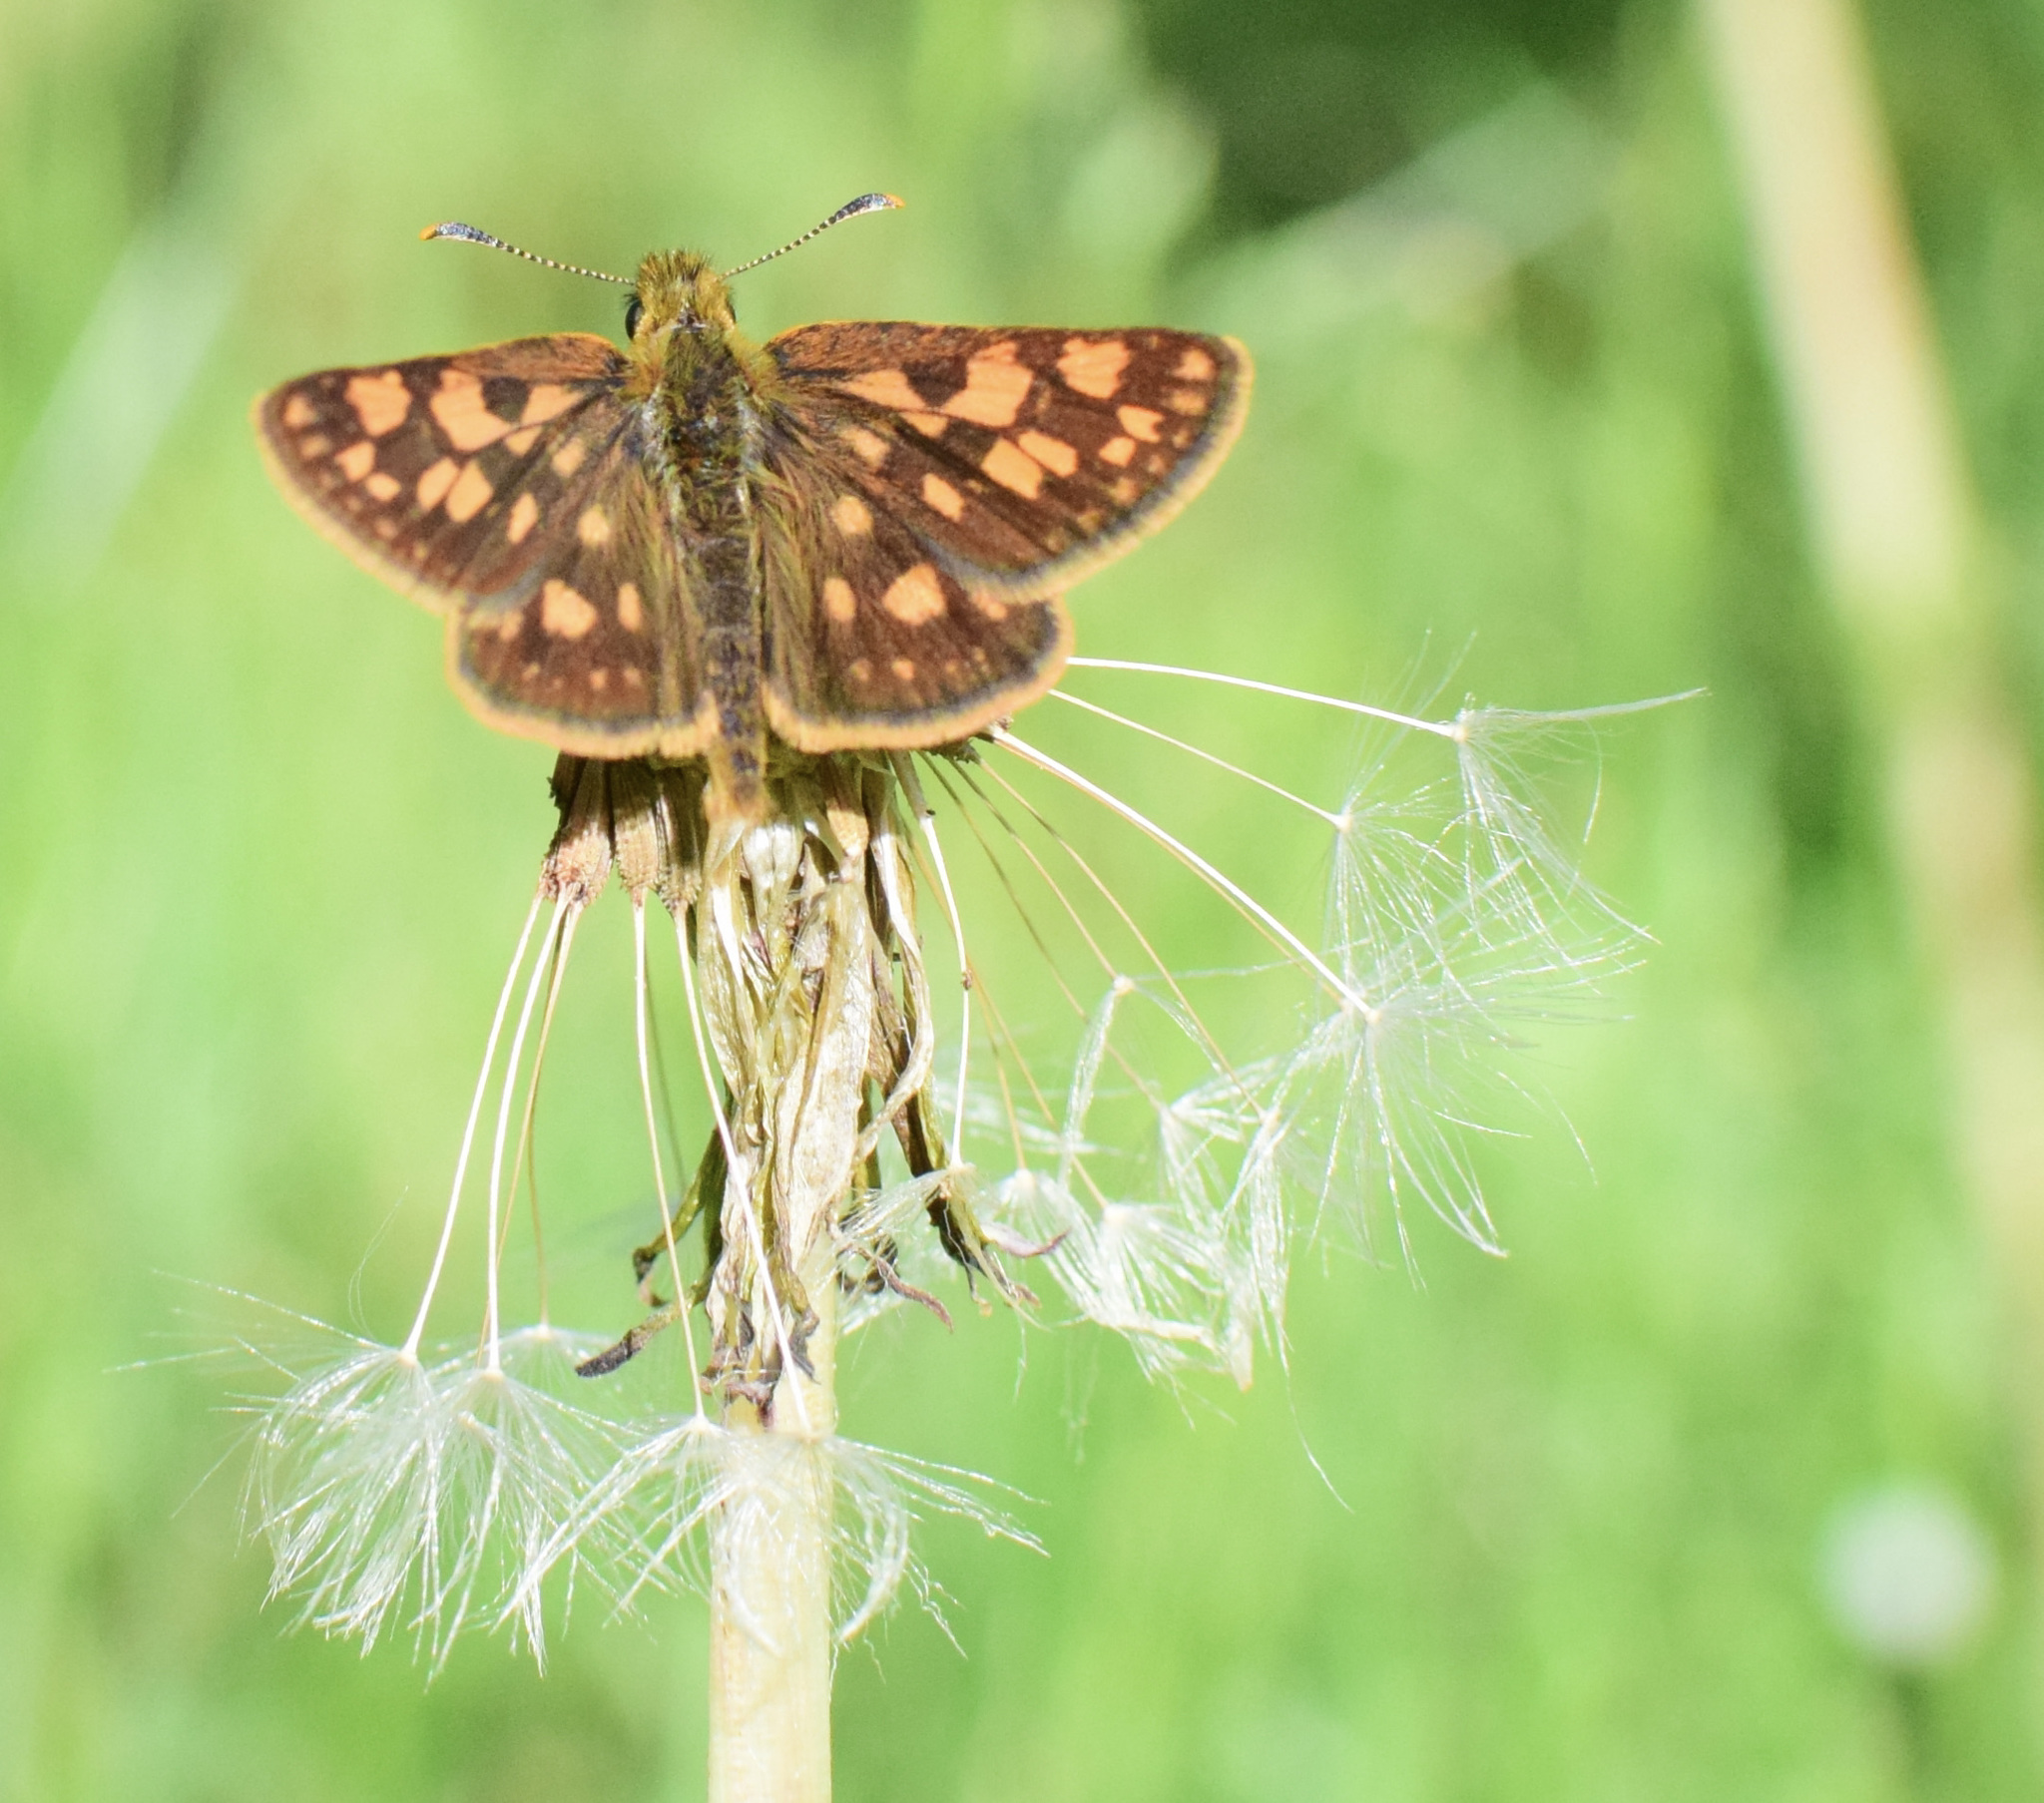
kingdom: Animalia
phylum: Arthropoda
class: Insecta
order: Lepidoptera
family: Hesperiidae
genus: Carterocephalus
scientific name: Carterocephalus mandan
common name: Arctic skipperling
